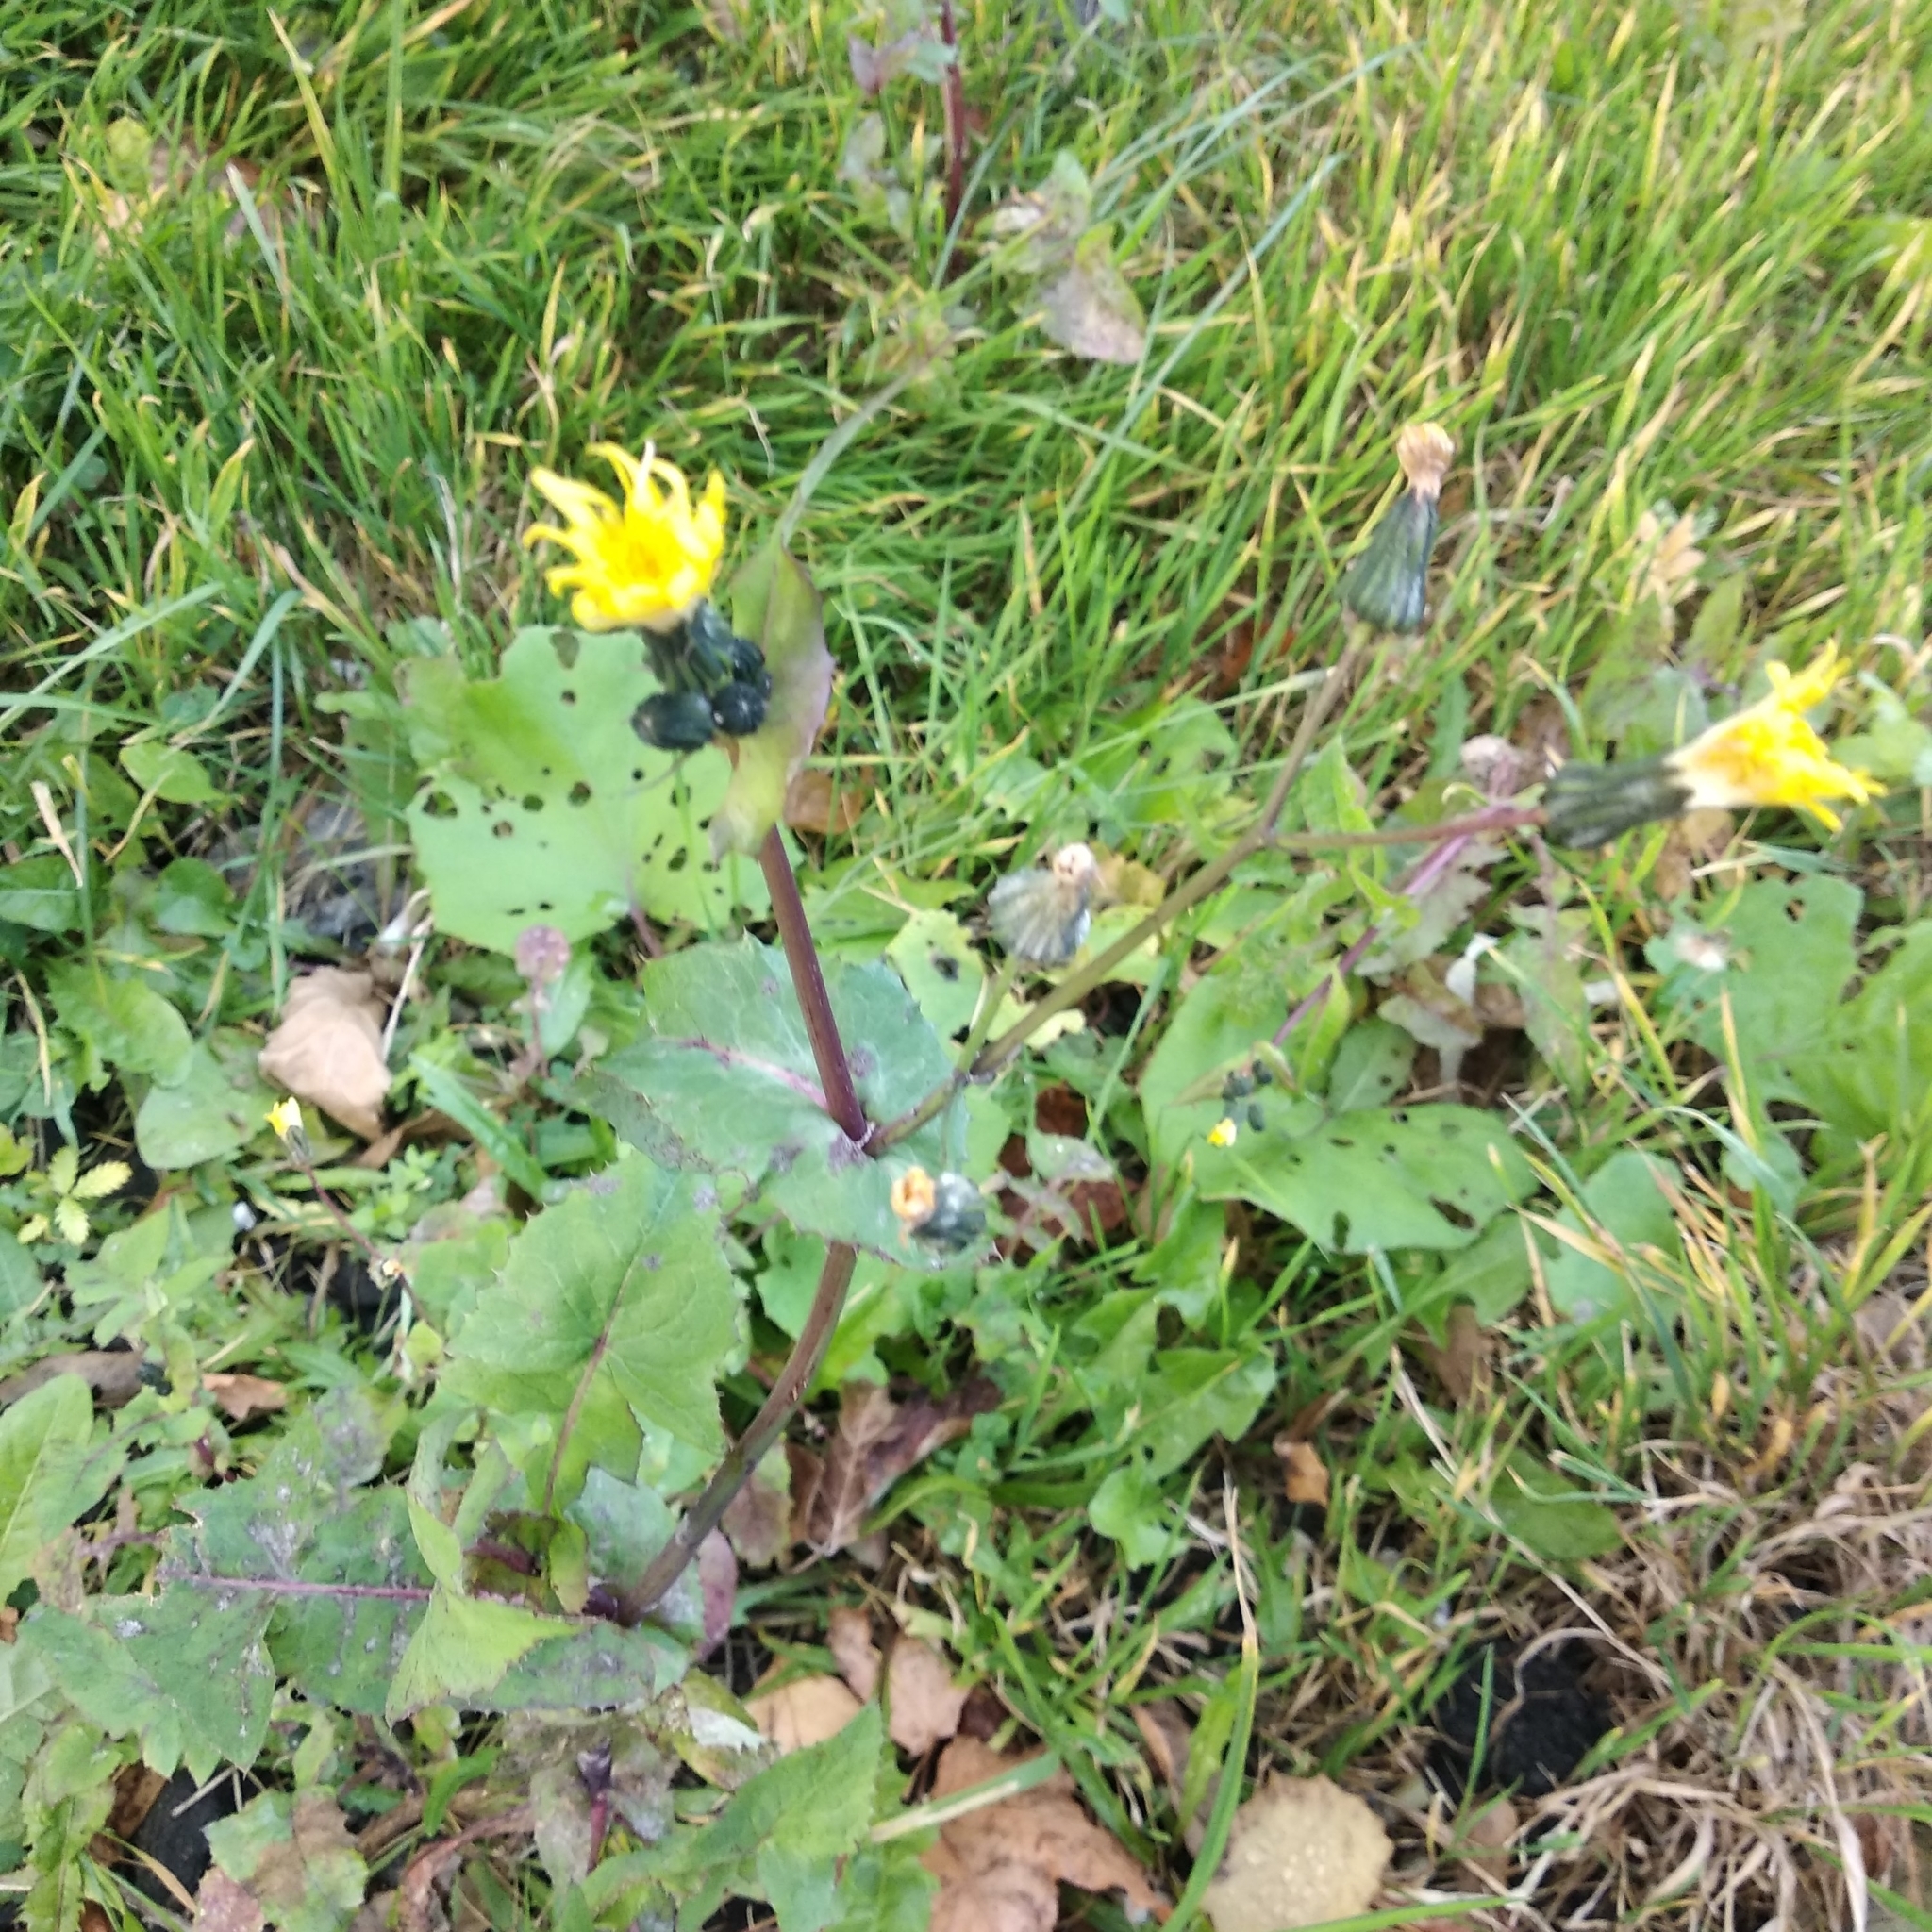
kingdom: Plantae
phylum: Tracheophyta
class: Magnoliopsida
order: Asterales
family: Asteraceae
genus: Sonchus
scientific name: Sonchus oleraceus
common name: Common sowthistle
